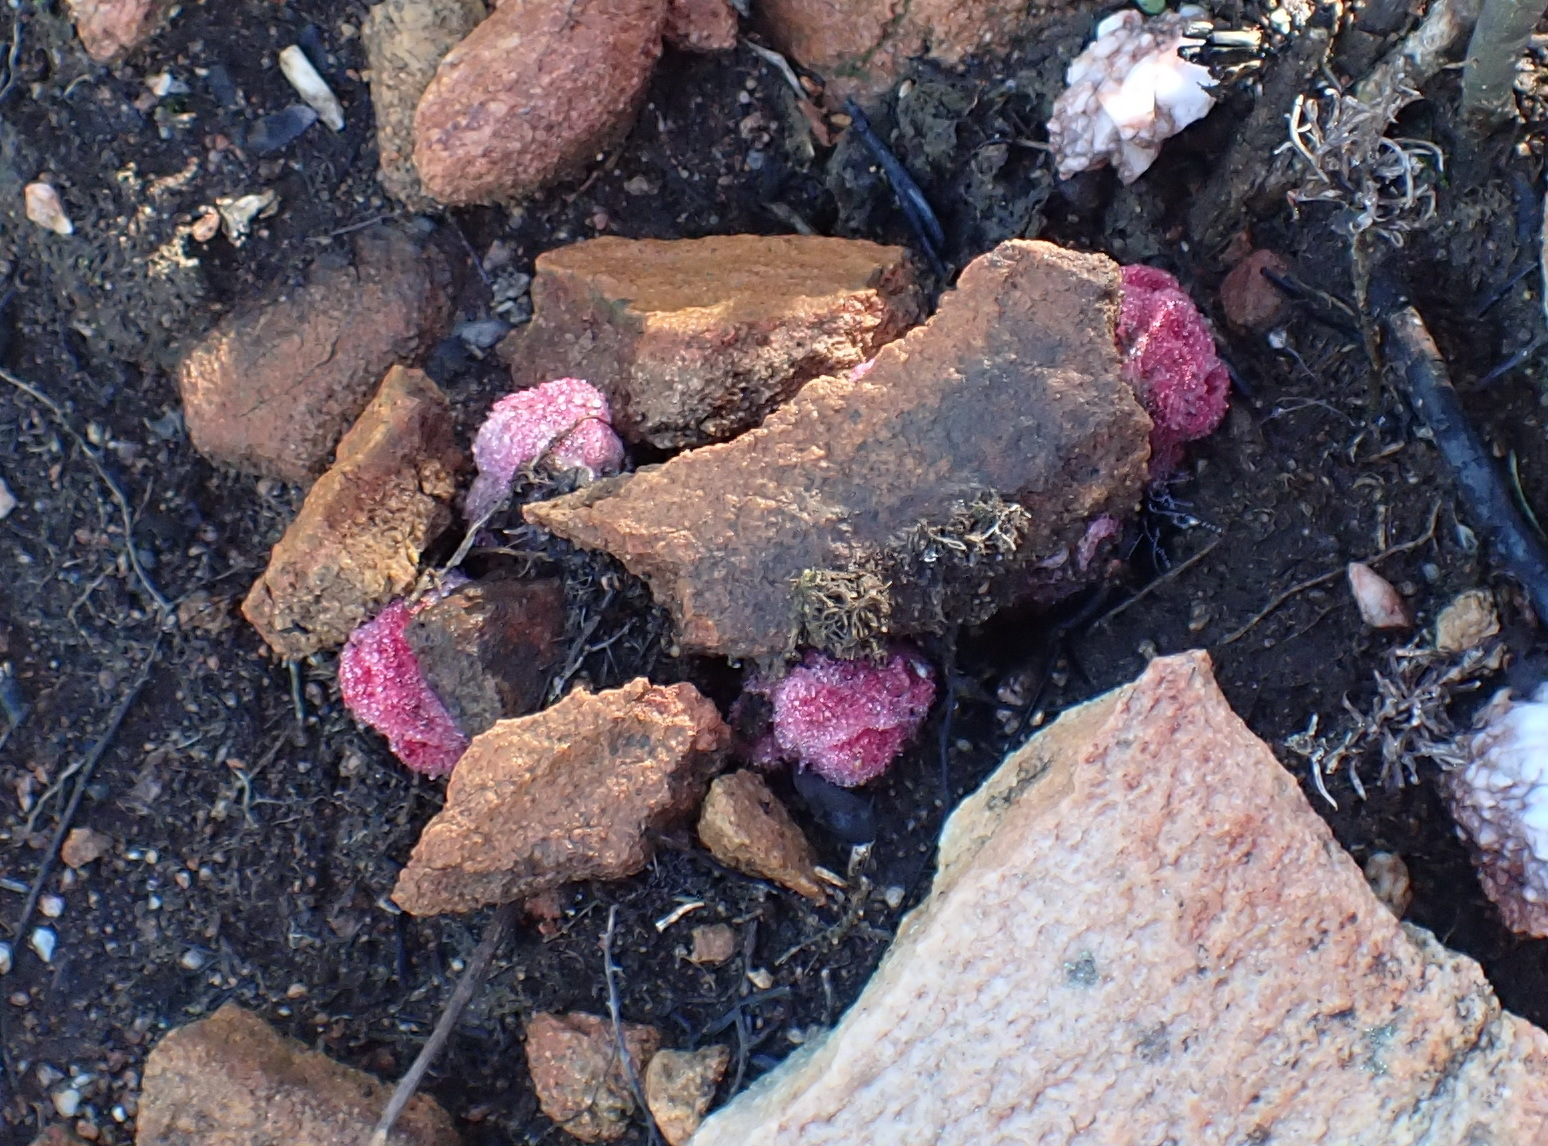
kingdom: Plantae
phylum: Tracheophyta
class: Magnoliopsida
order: Lamiales
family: Orobanchaceae
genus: Harveya
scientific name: Harveya roseoalba
